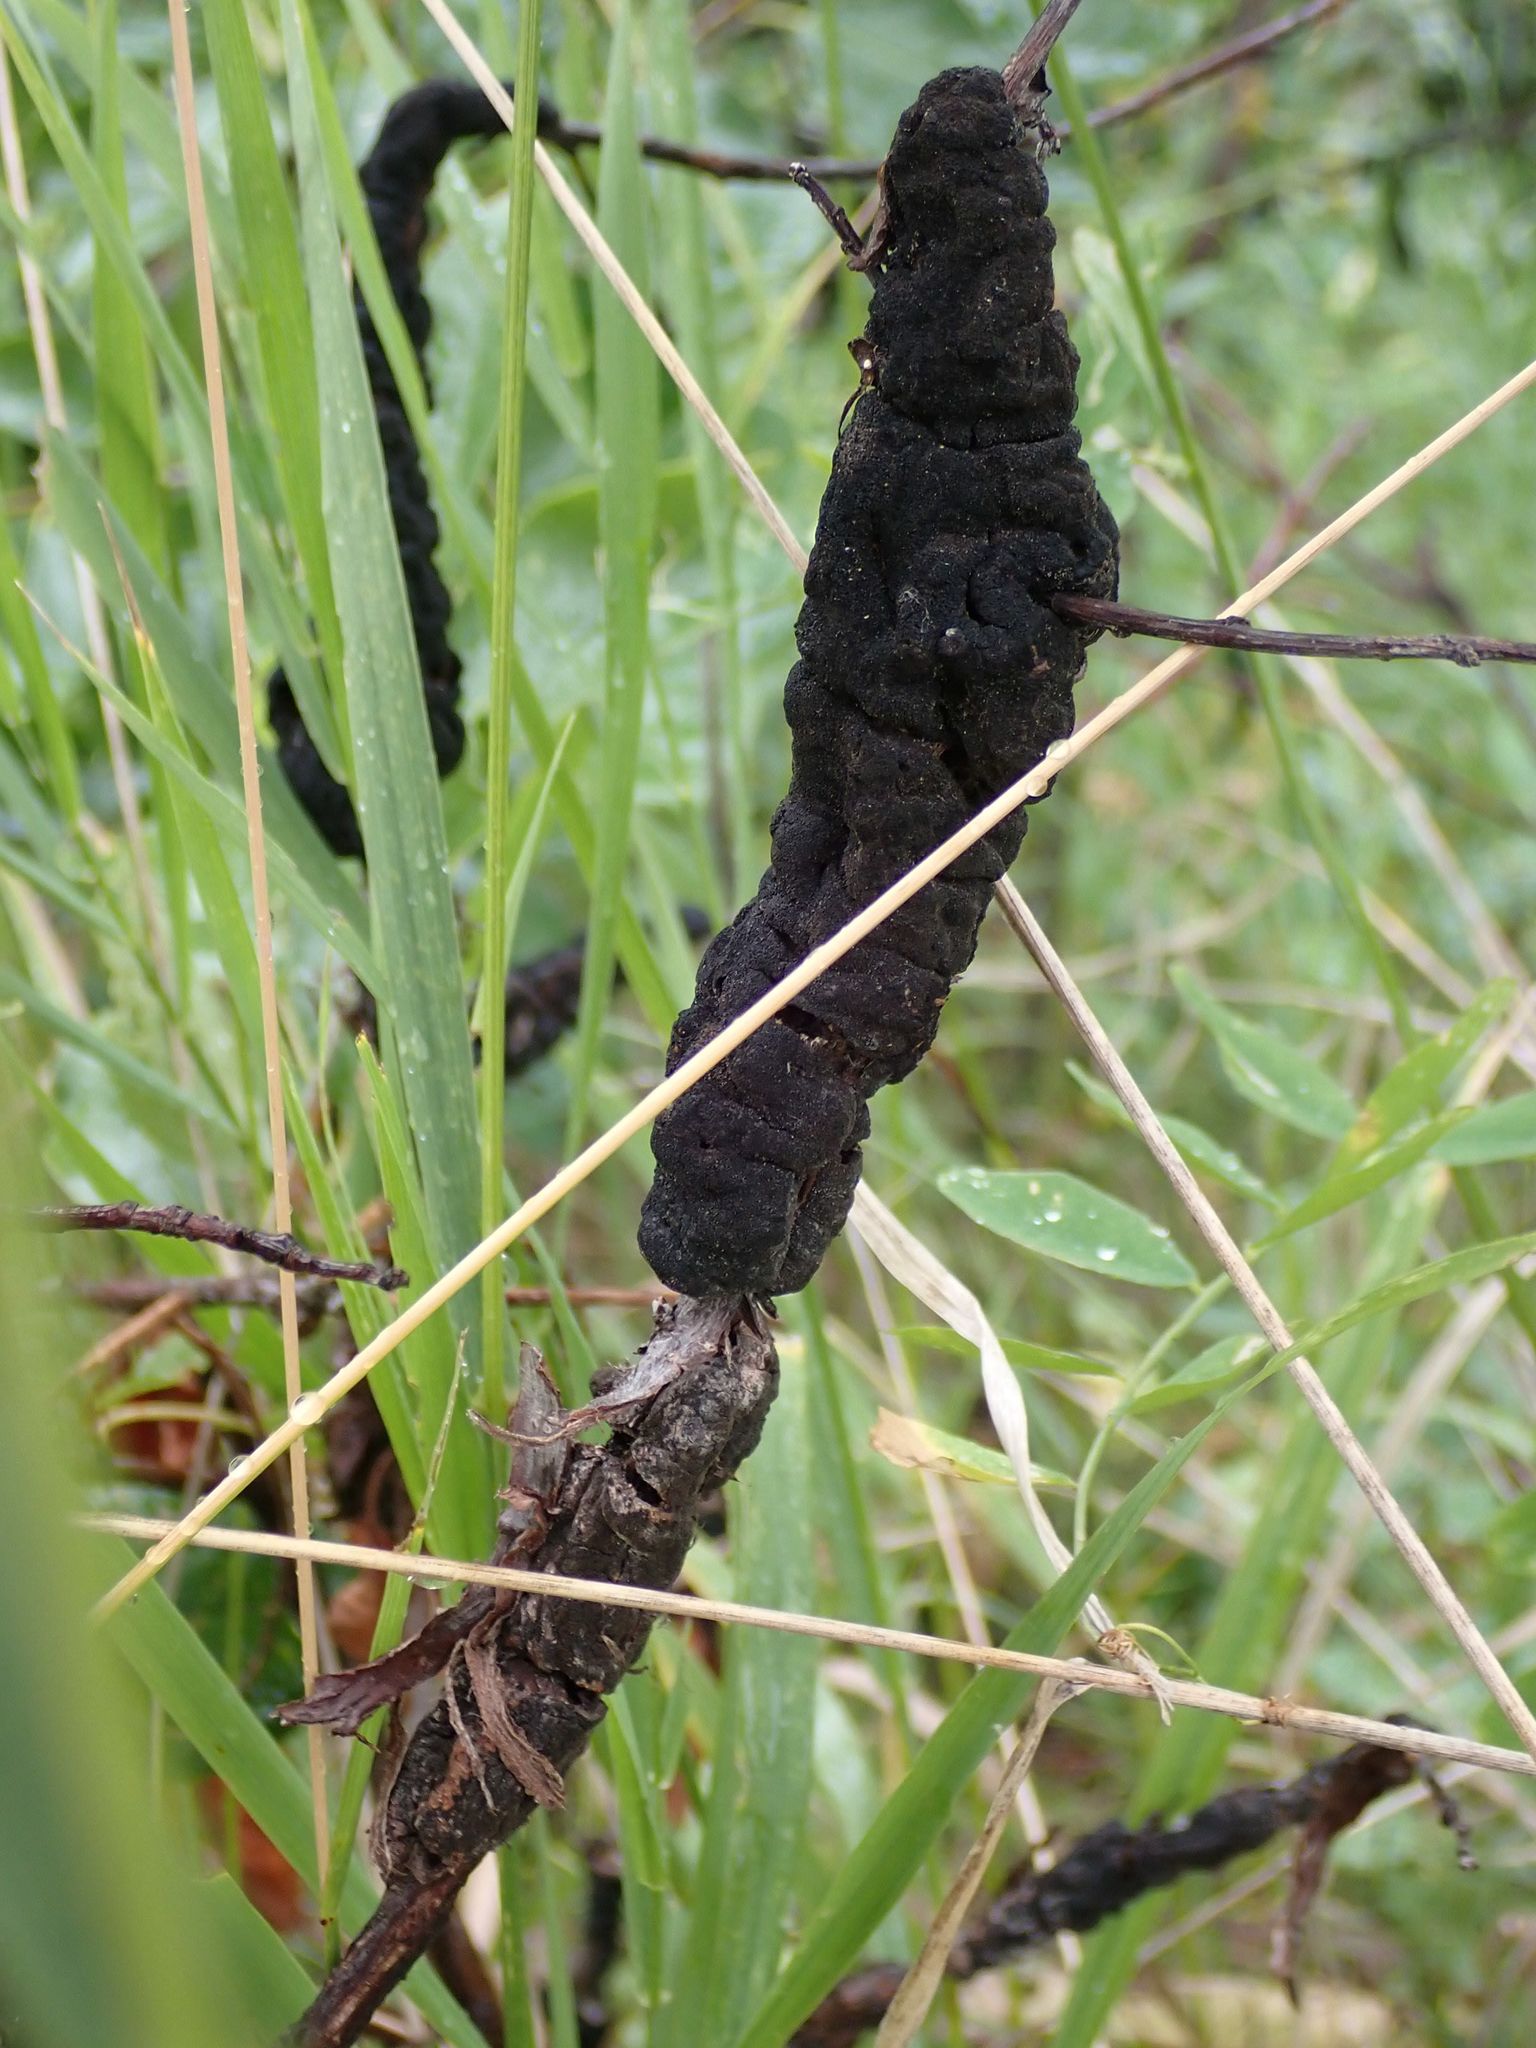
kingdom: Fungi
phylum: Ascomycota
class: Dothideomycetes
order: Venturiales
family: Venturiaceae
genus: Apiosporina
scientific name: Apiosporina morbosa
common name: Black knot
